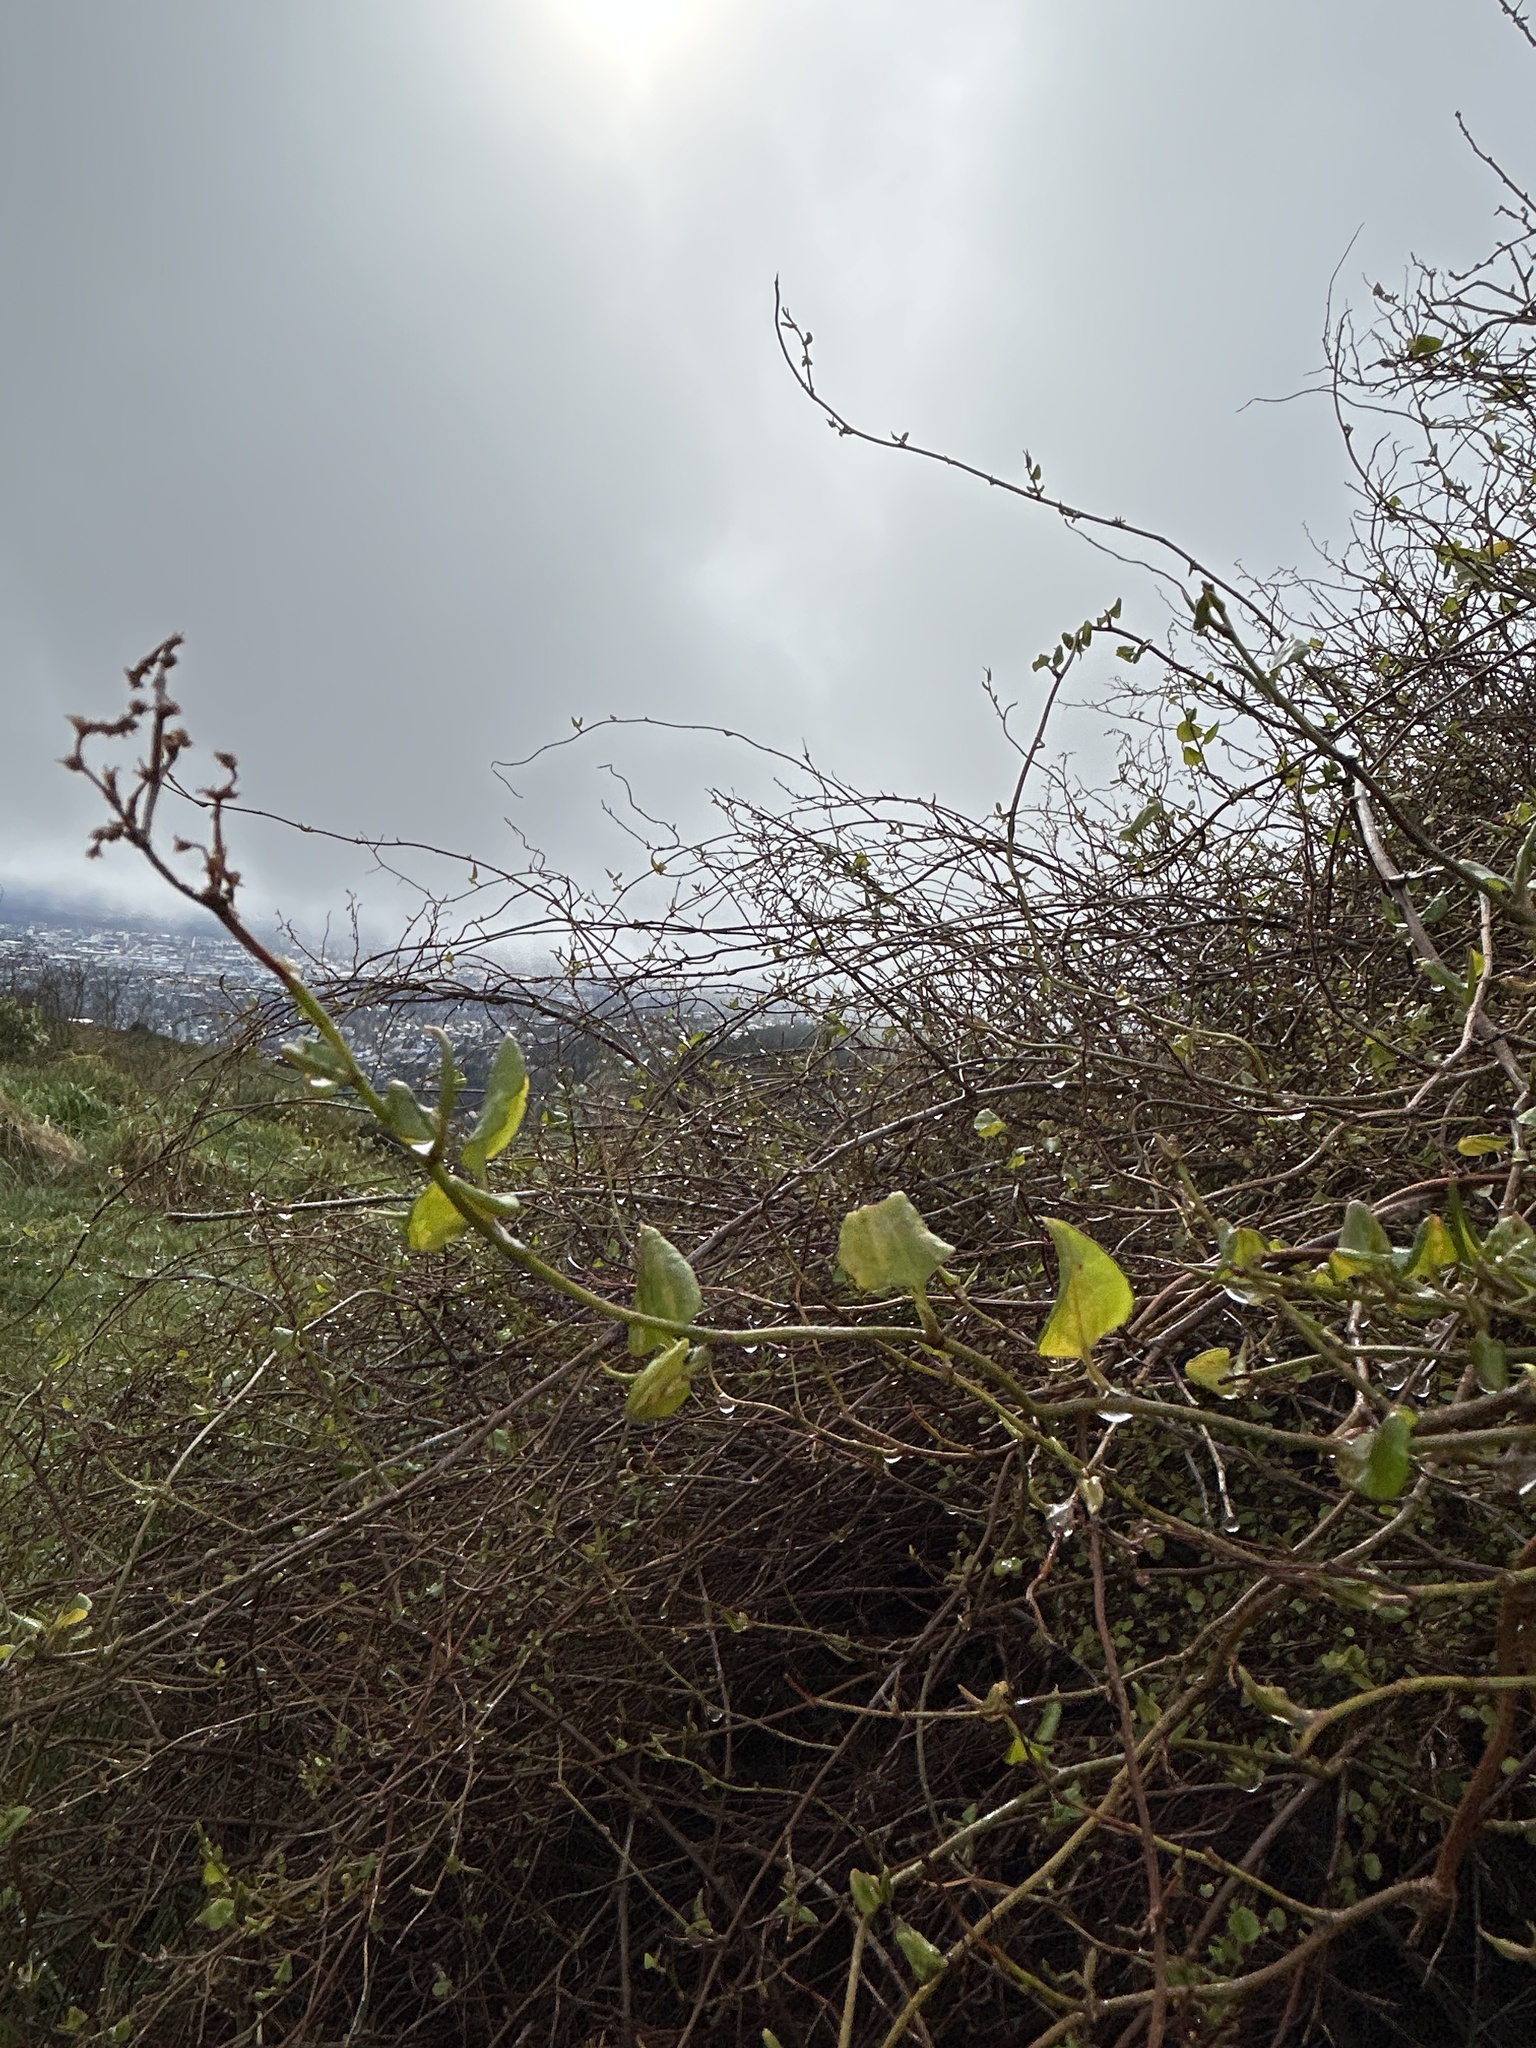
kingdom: Plantae
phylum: Tracheophyta
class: Magnoliopsida
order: Caryophyllales
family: Polygonaceae
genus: Muehlenbeckia
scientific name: Muehlenbeckia australis
